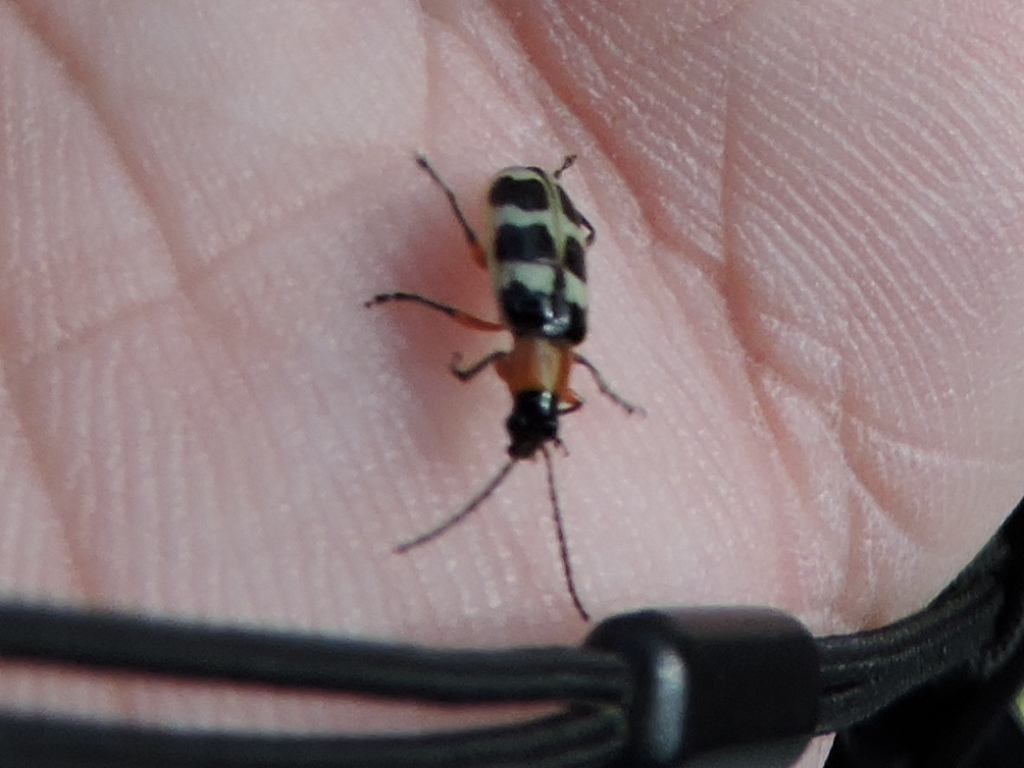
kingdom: Animalia
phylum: Arthropoda
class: Insecta
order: Coleoptera
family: Chrysomelidae
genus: Paranapiacaba
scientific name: Paranapiacaba tricincta
